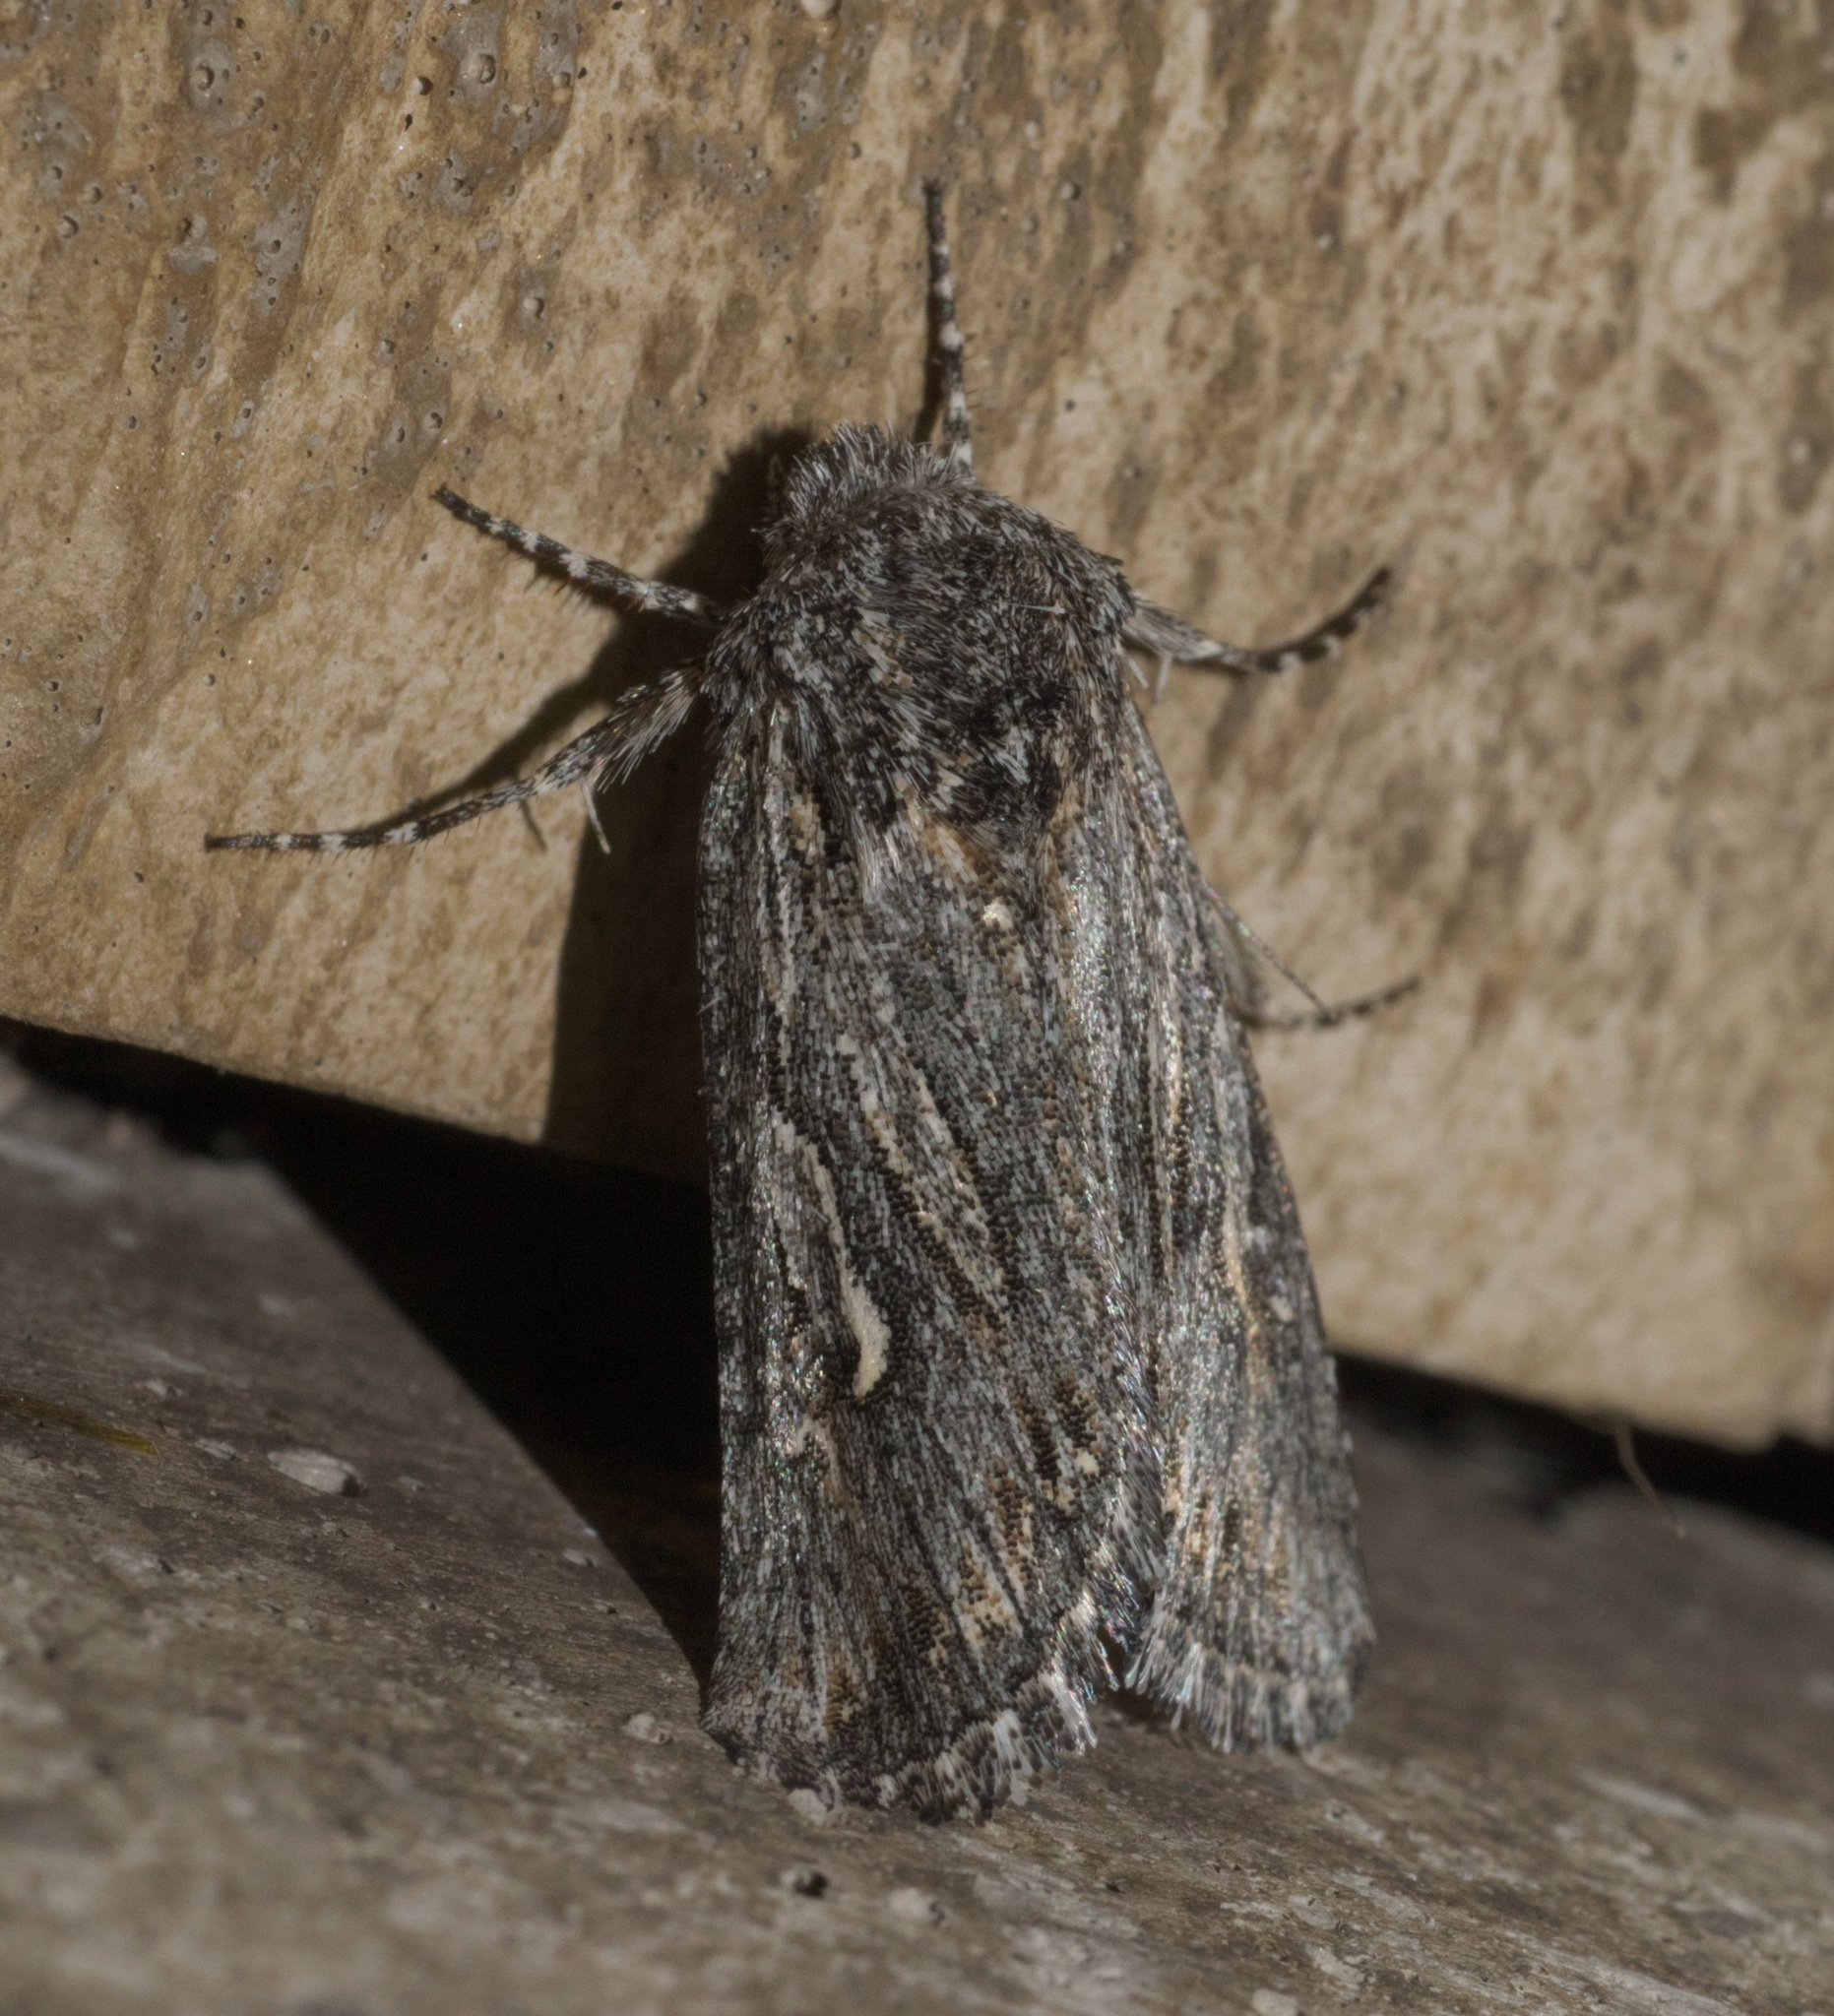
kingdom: Animalia
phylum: Arthropoda
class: Insecta
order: Lepidoptera
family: Noctuidae
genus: Trichocerapoda
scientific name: Trichocerapoda strigata
